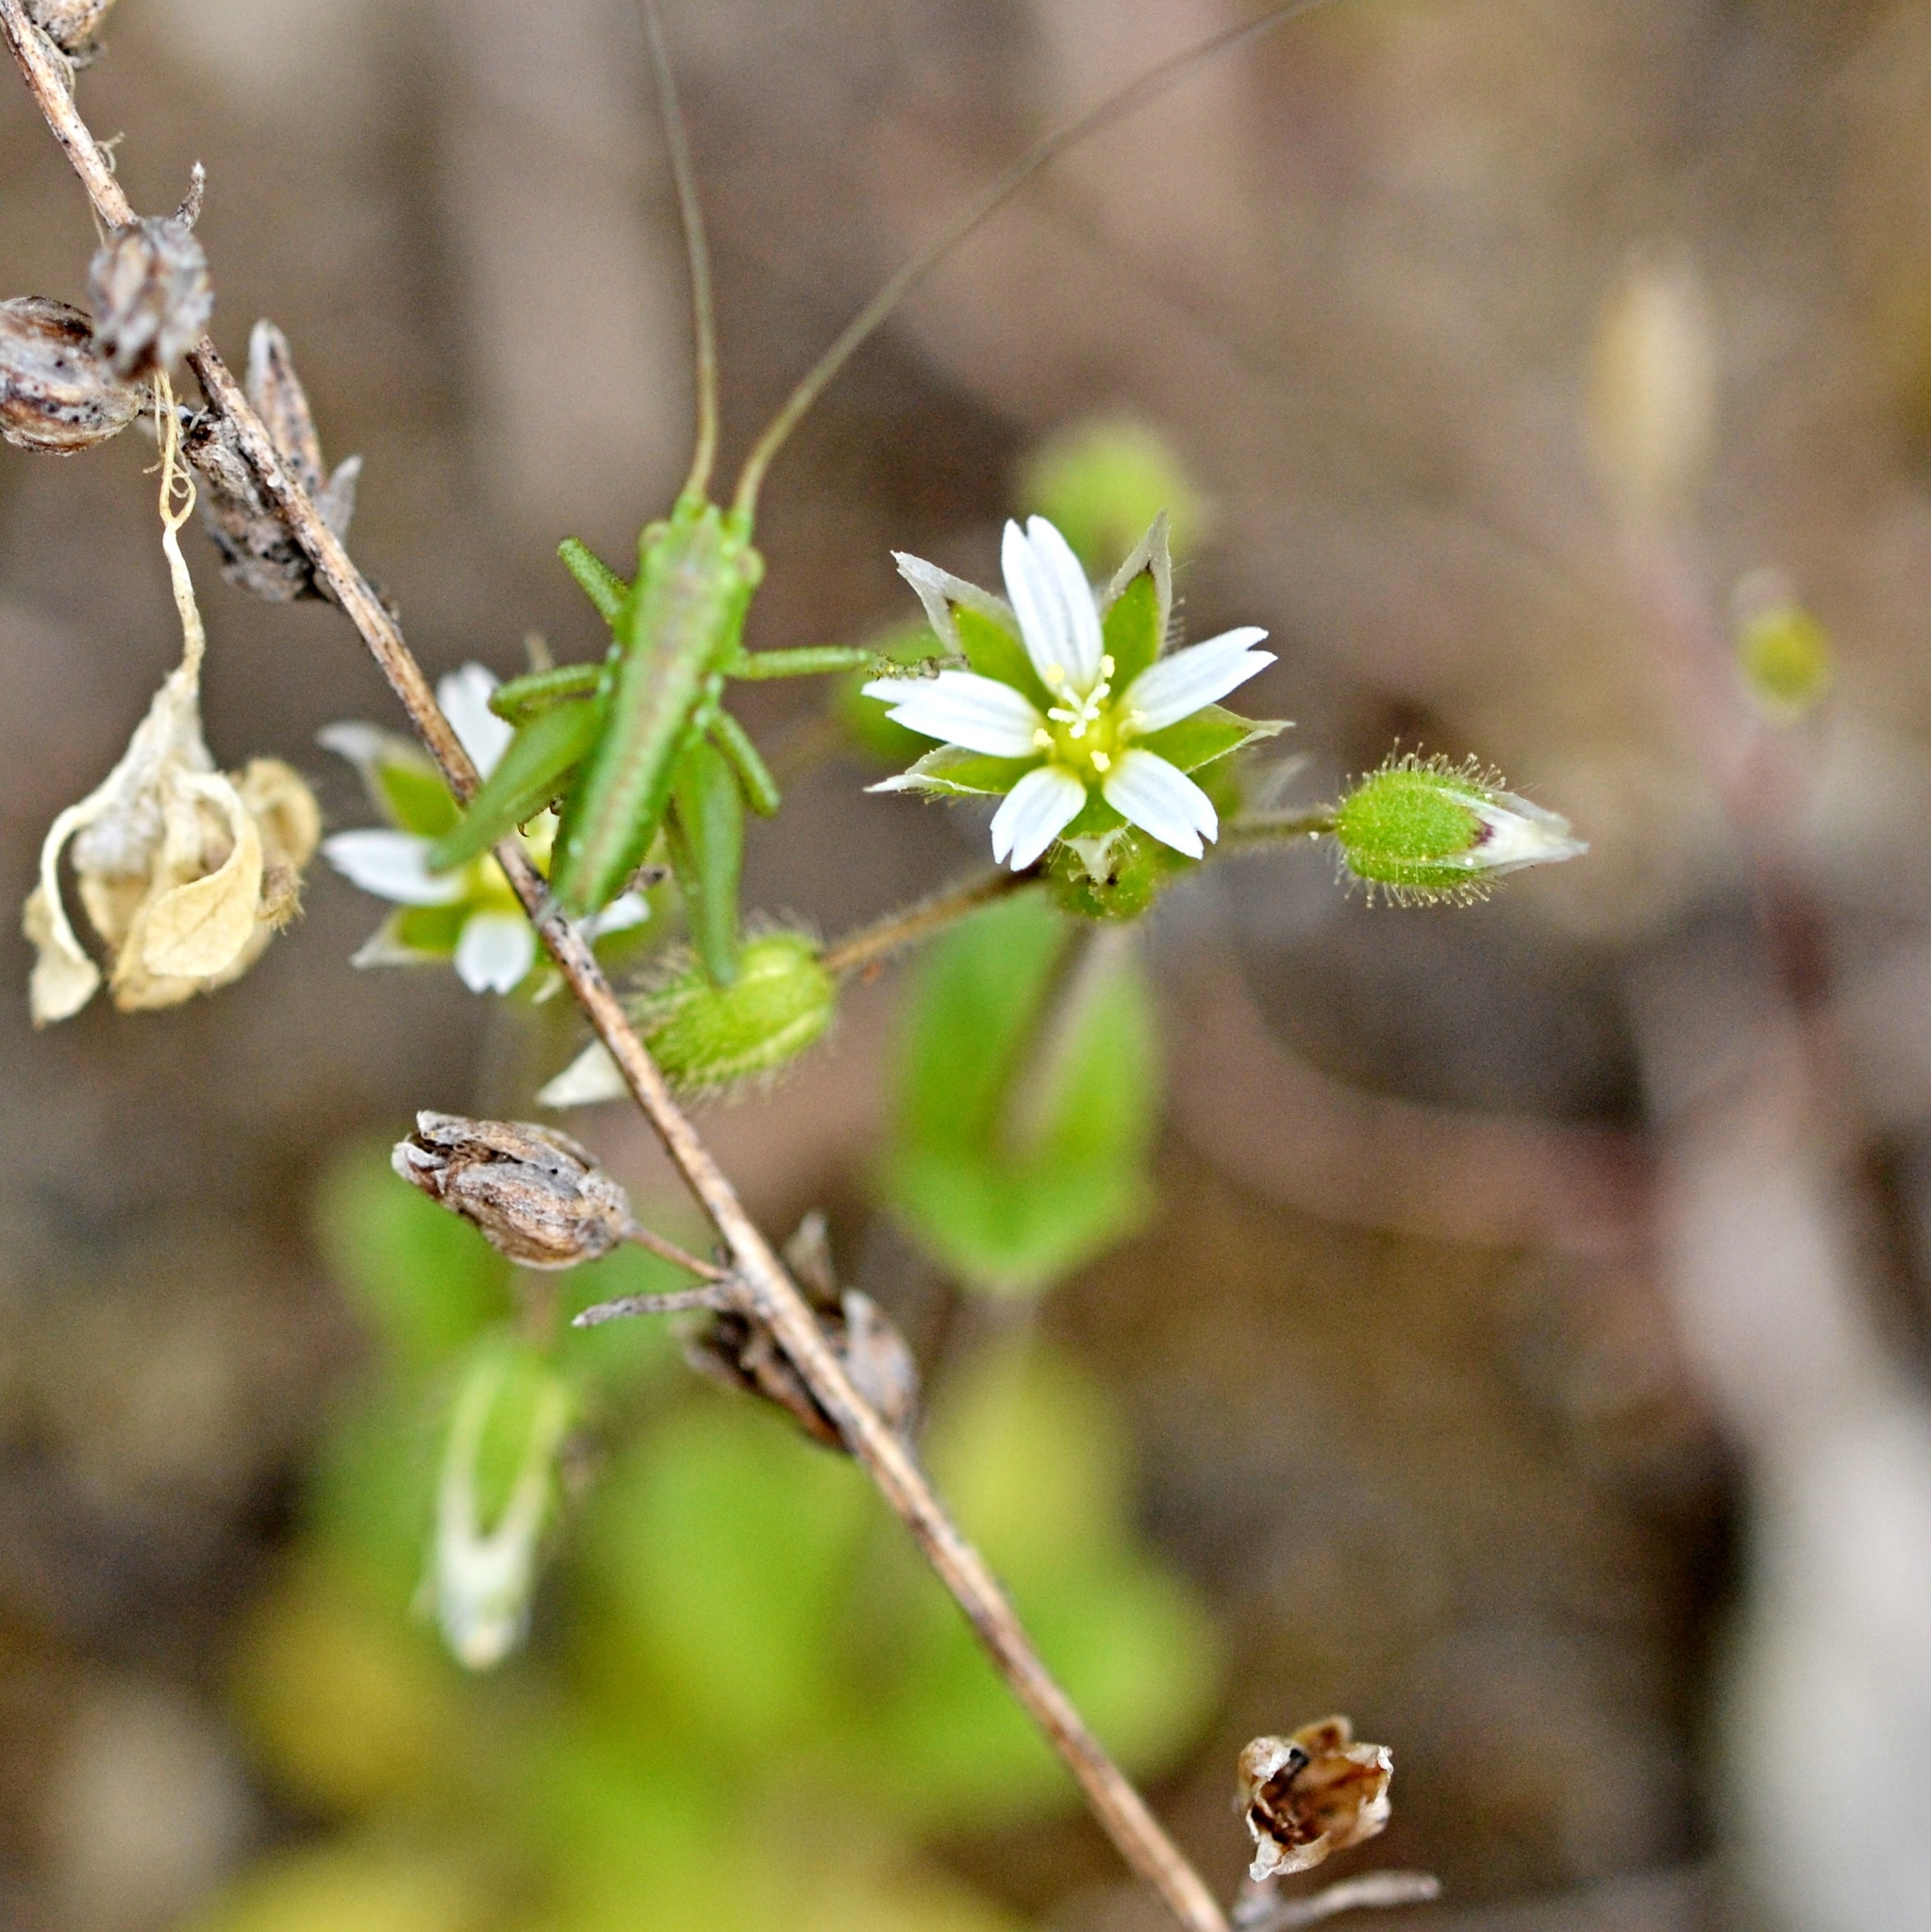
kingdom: Animalia
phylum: Arthropoda
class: Insecta
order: Orthoptera
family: Tettigoniidae
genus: Tettigonia
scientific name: Tettigonia viridissima
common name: Great green bush-cricket
